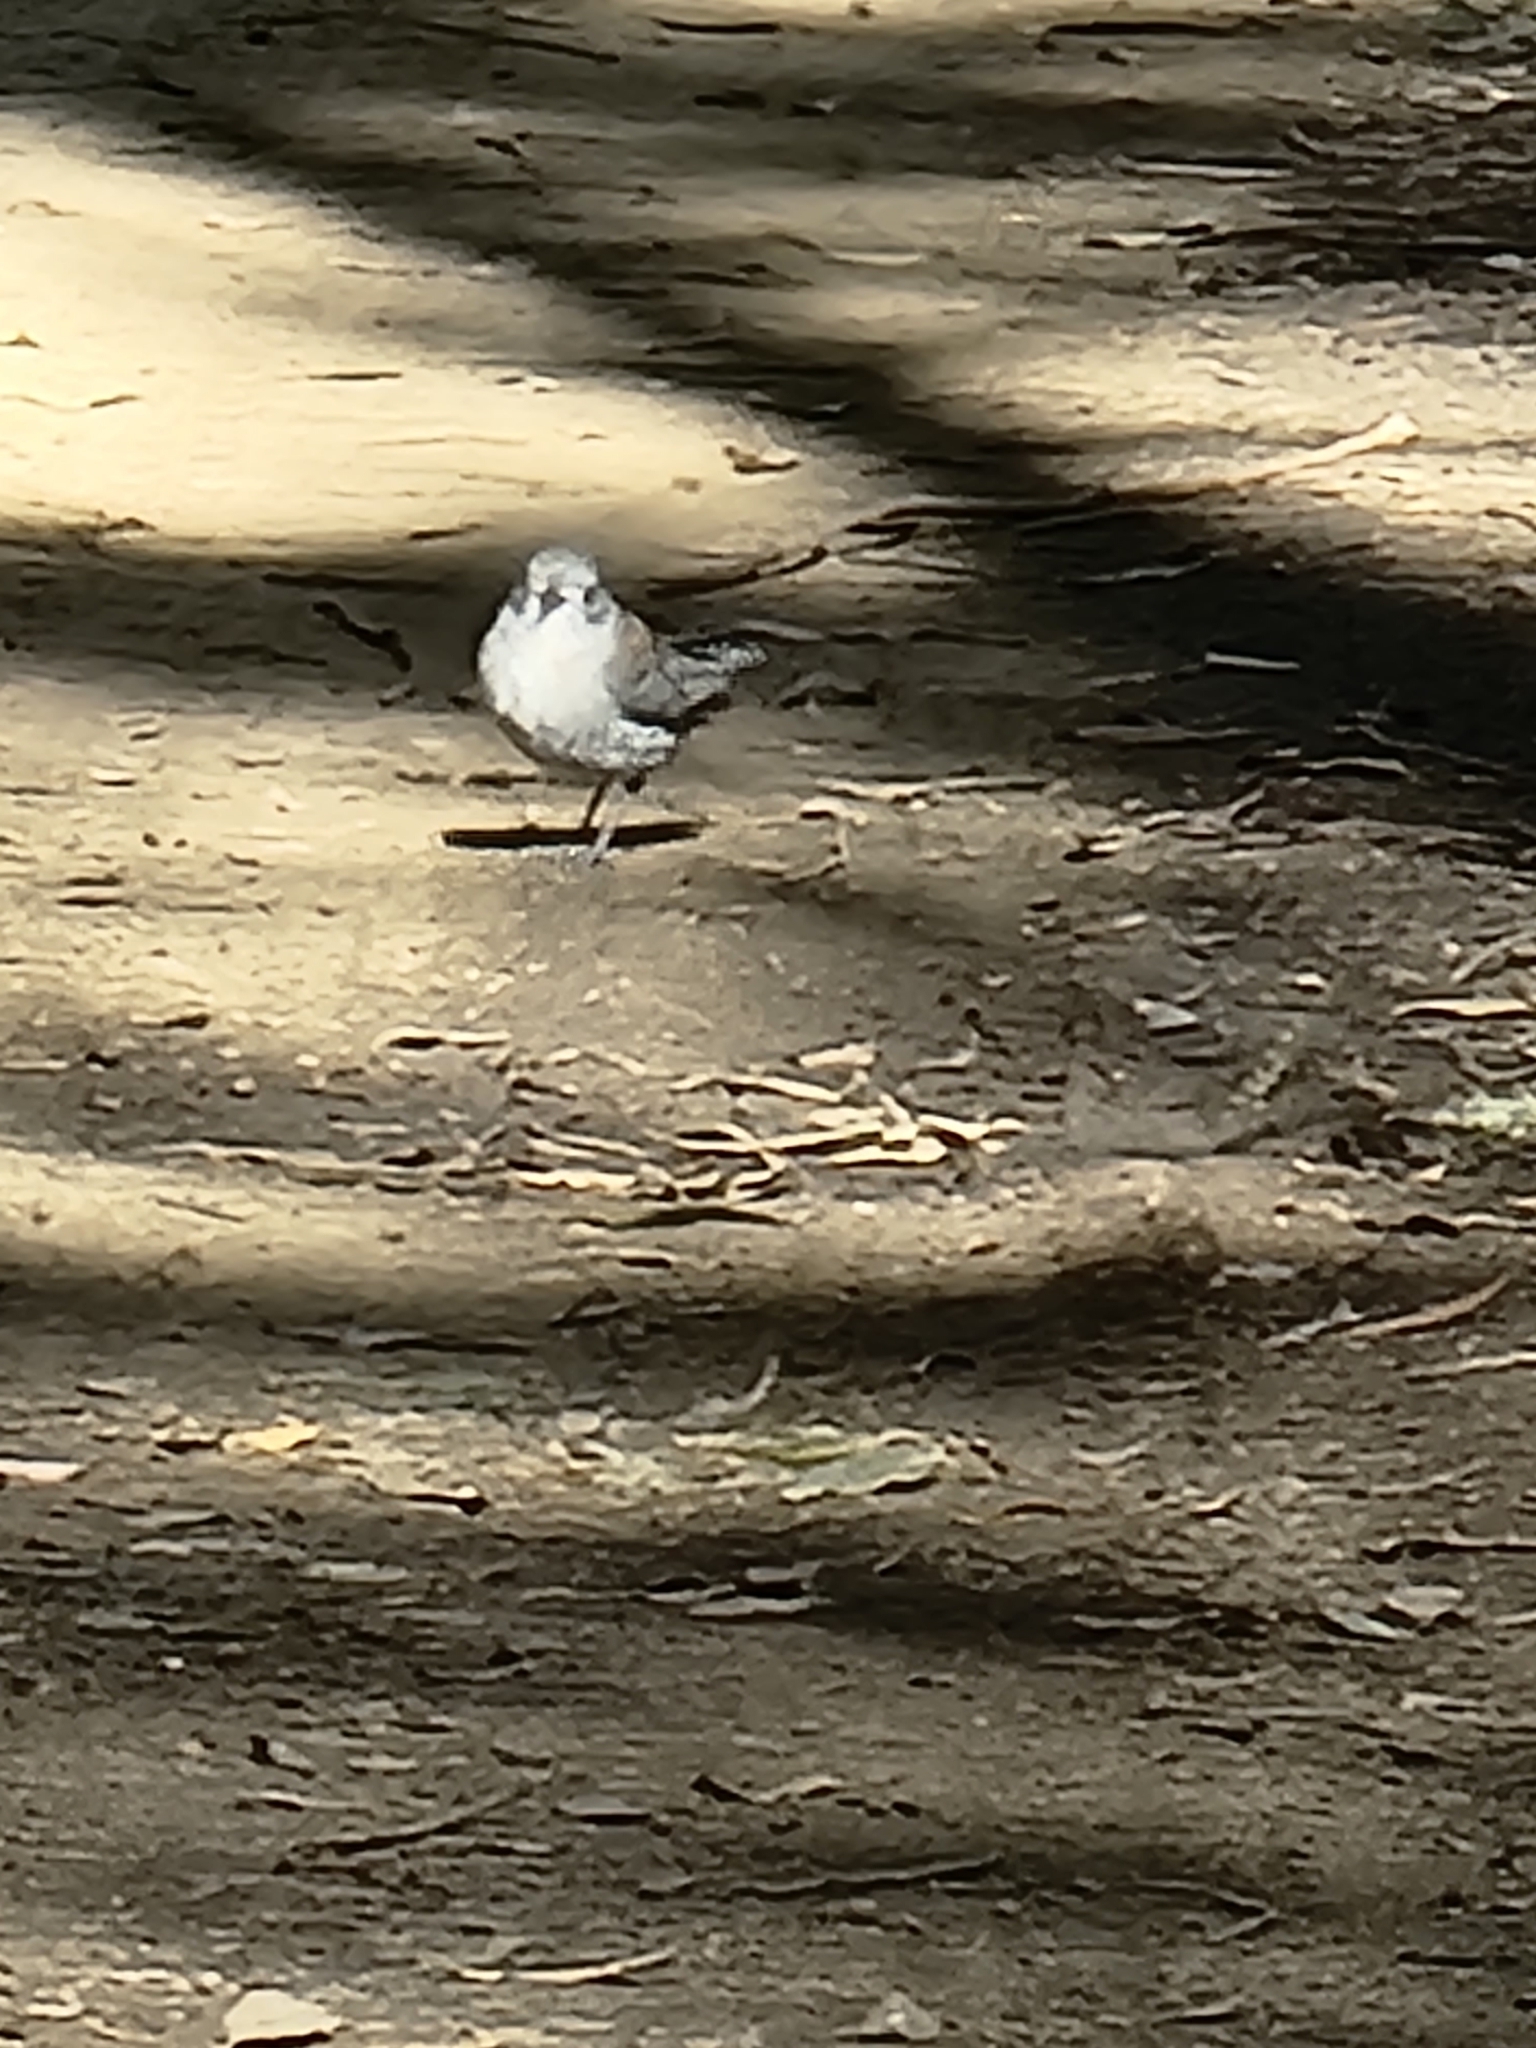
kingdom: Animalia
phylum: Chordata
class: Aves
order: Passeriformes
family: Pachycephalidae
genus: Colluricincla
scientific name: Colluricincla harmonica
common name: Grey shrikethrush
